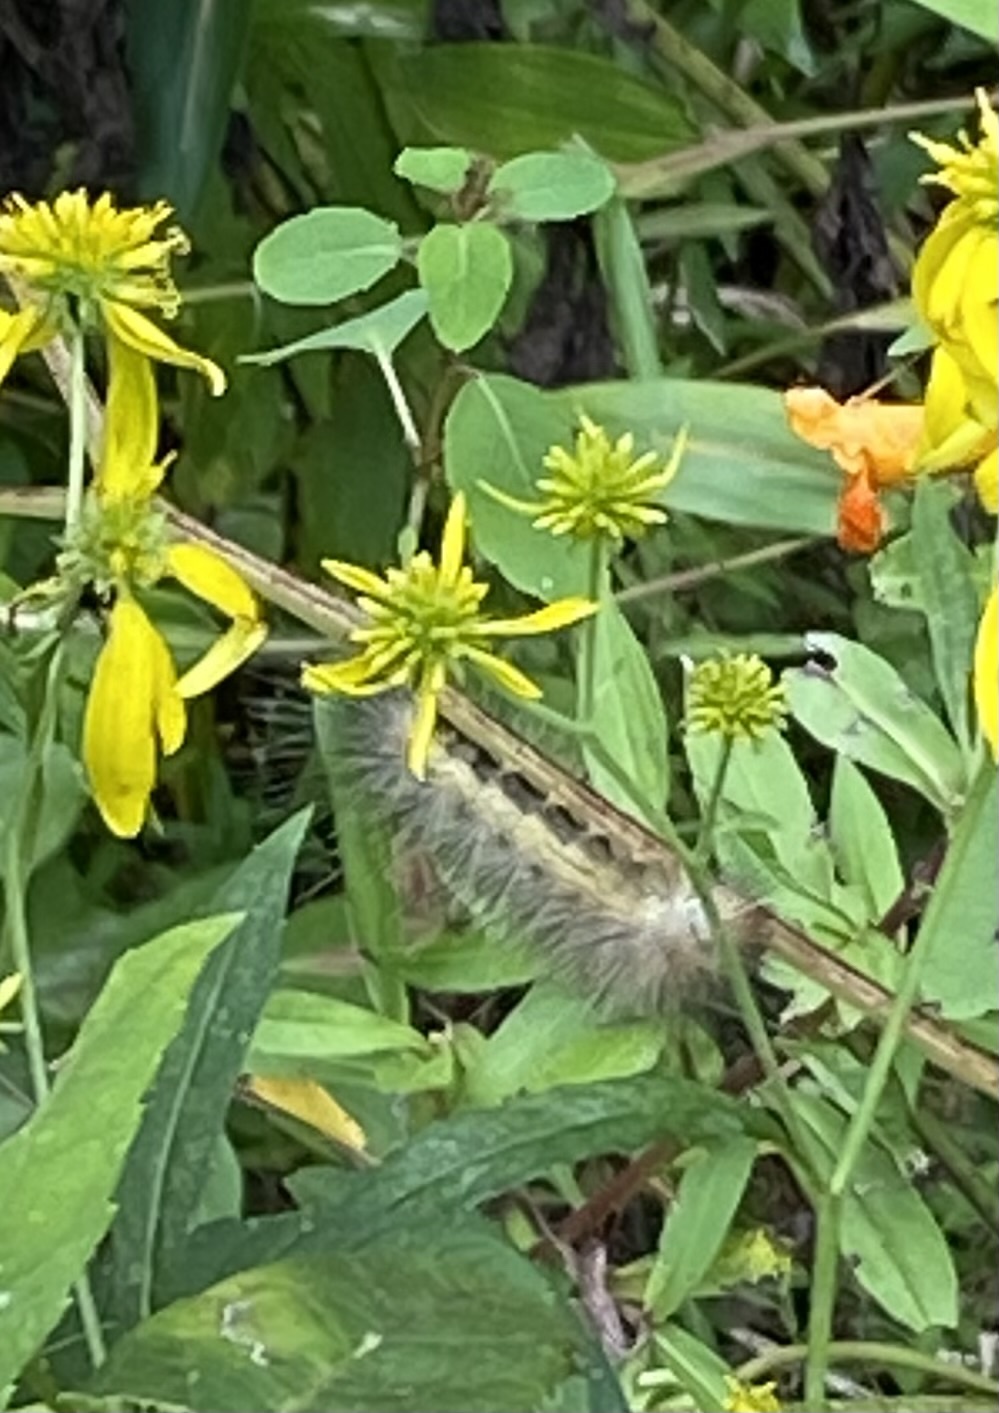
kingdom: Animalia
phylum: Arthropoda
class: Insecta
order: Lepidoptera
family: Erebidae
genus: Spilosoma
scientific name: Spilosoma virginica
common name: Virginia tiger moth
